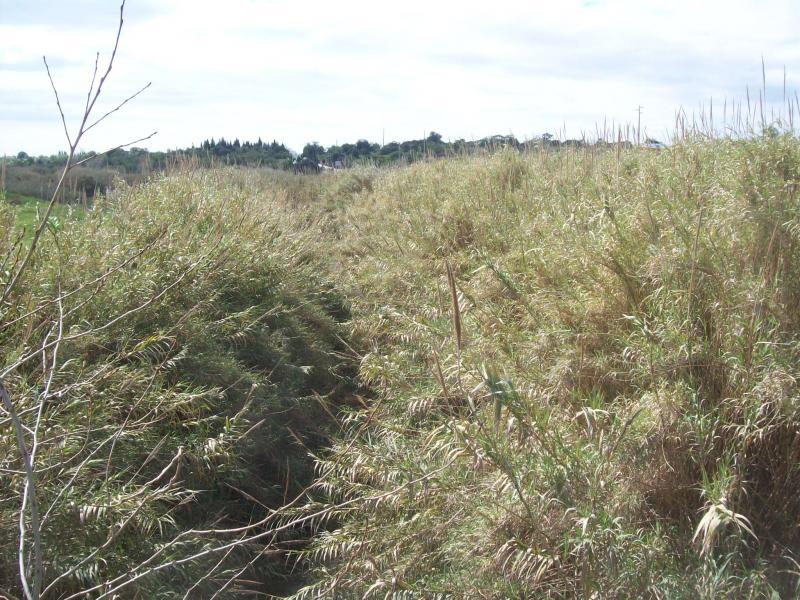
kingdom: Plantae
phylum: Tracheophyta
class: Liliopsida
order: Poales
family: Poaceae
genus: Arundo
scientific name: Arundo donax
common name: Giant reed
